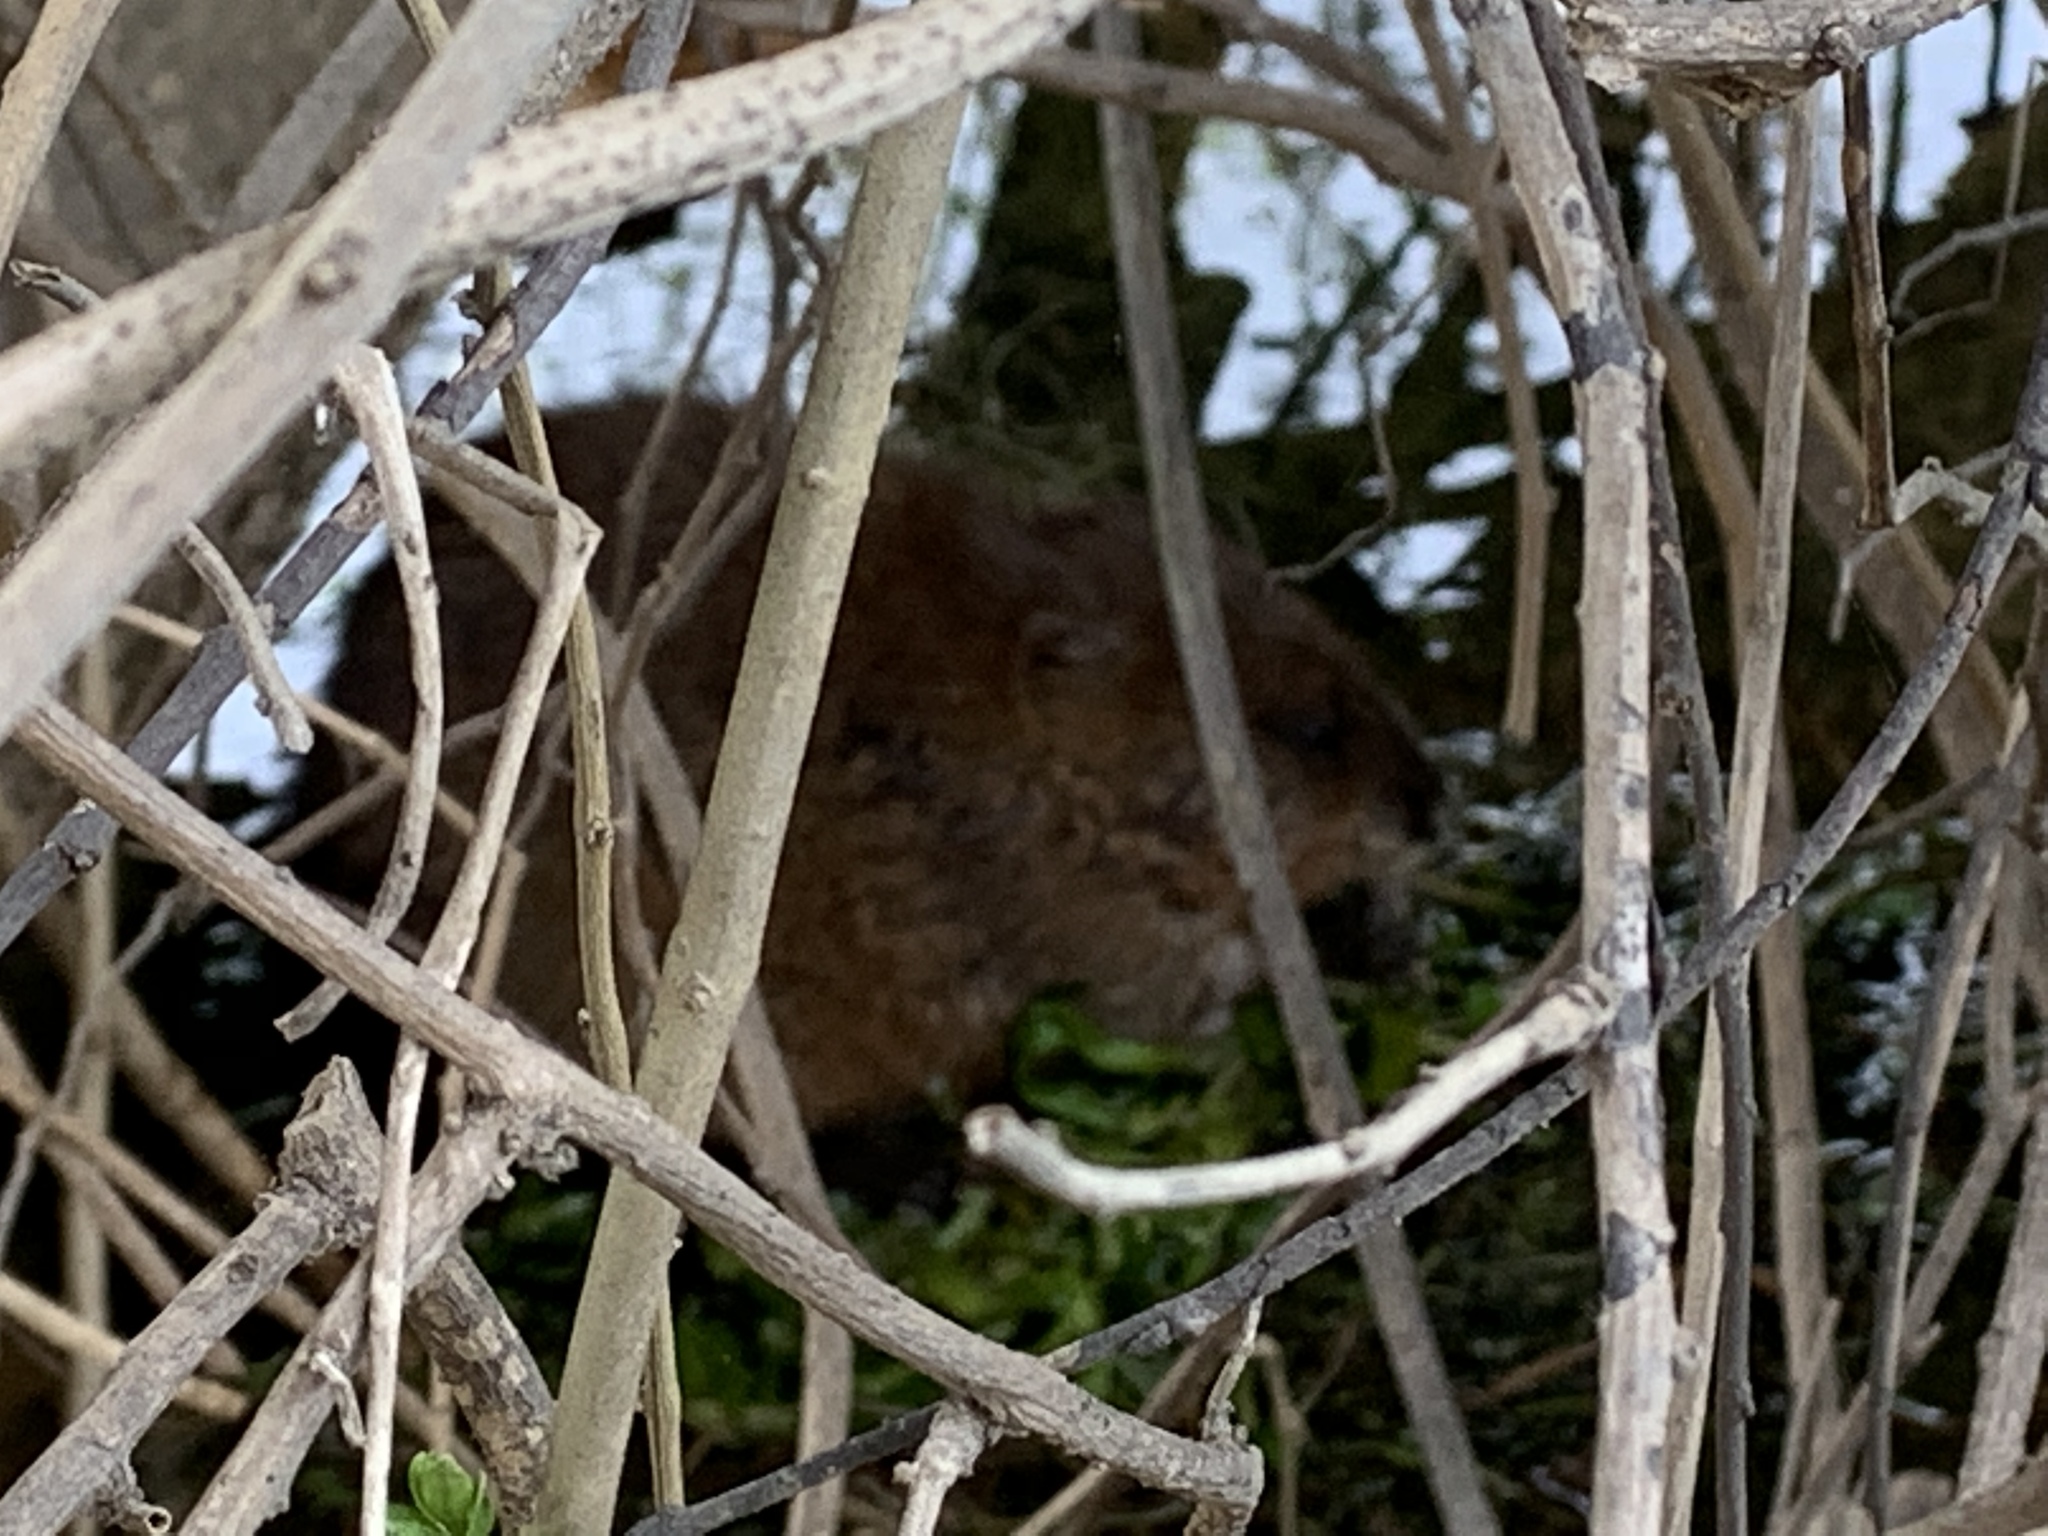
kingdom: Animalia
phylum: Chordata
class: Mammalia
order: Rodentia
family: Cricetidae
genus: Ondatra
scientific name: Ondatra zibethicus
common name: Muskrat
